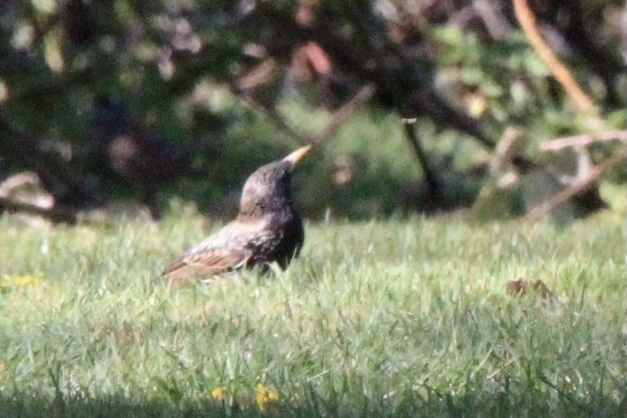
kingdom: Animalia
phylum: Chordata
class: Aves
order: Passeriformes
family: Sturnidae
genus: Sturnus
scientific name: Sturnus vulgaris
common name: Common starling
